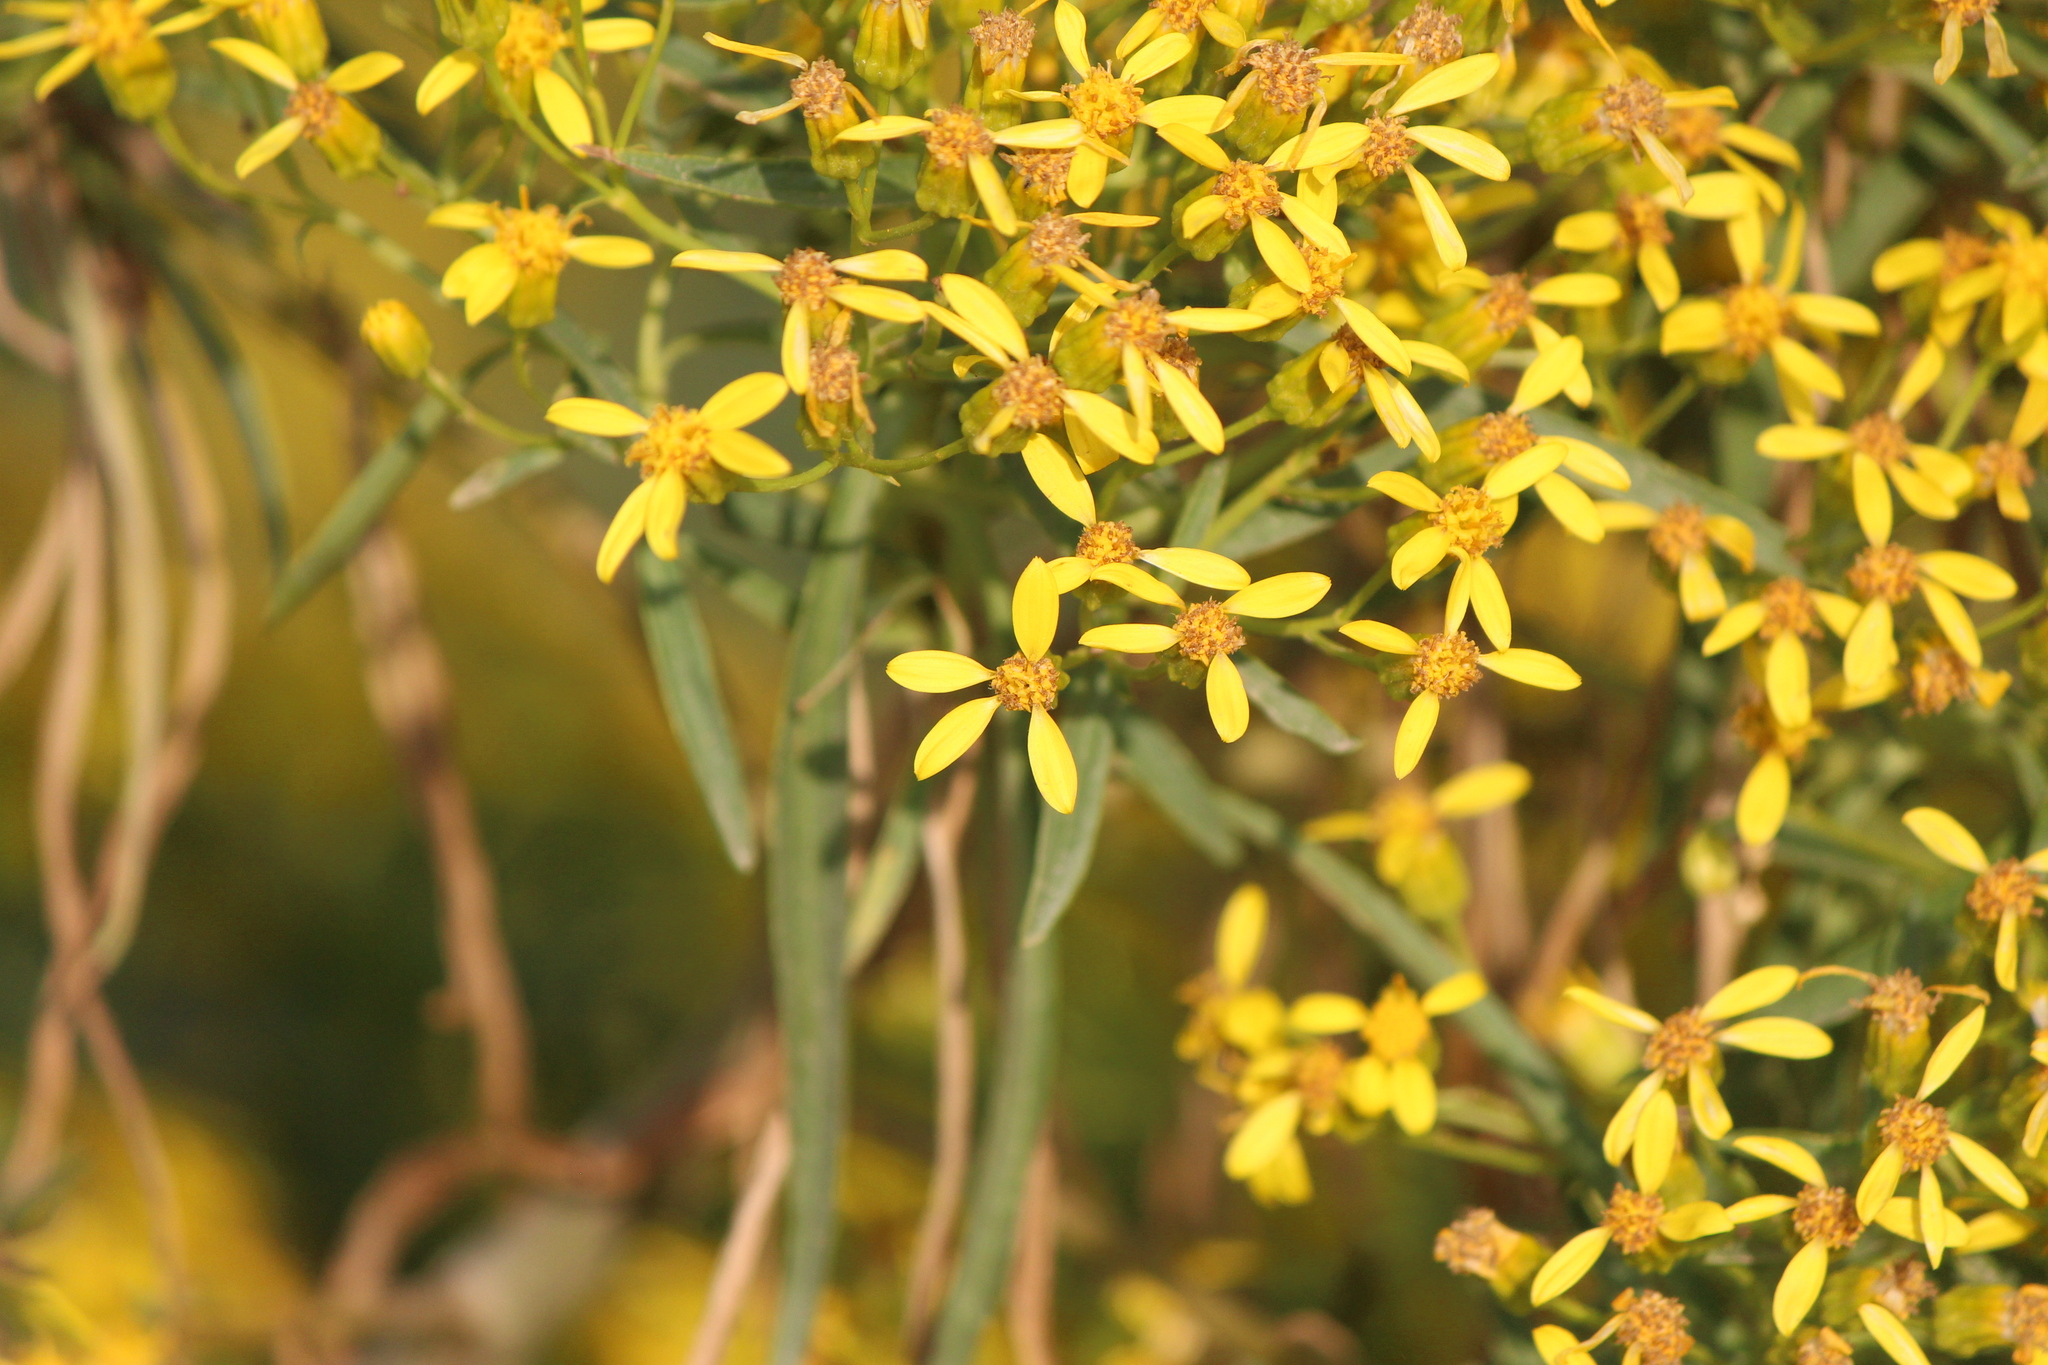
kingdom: Plantae
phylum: Tracheophyta
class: Magnoliopsida
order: Asterales
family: Asteraceae
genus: Barkleyanthus
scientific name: Barkleyanthus salicifolius
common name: Willow ragwort
